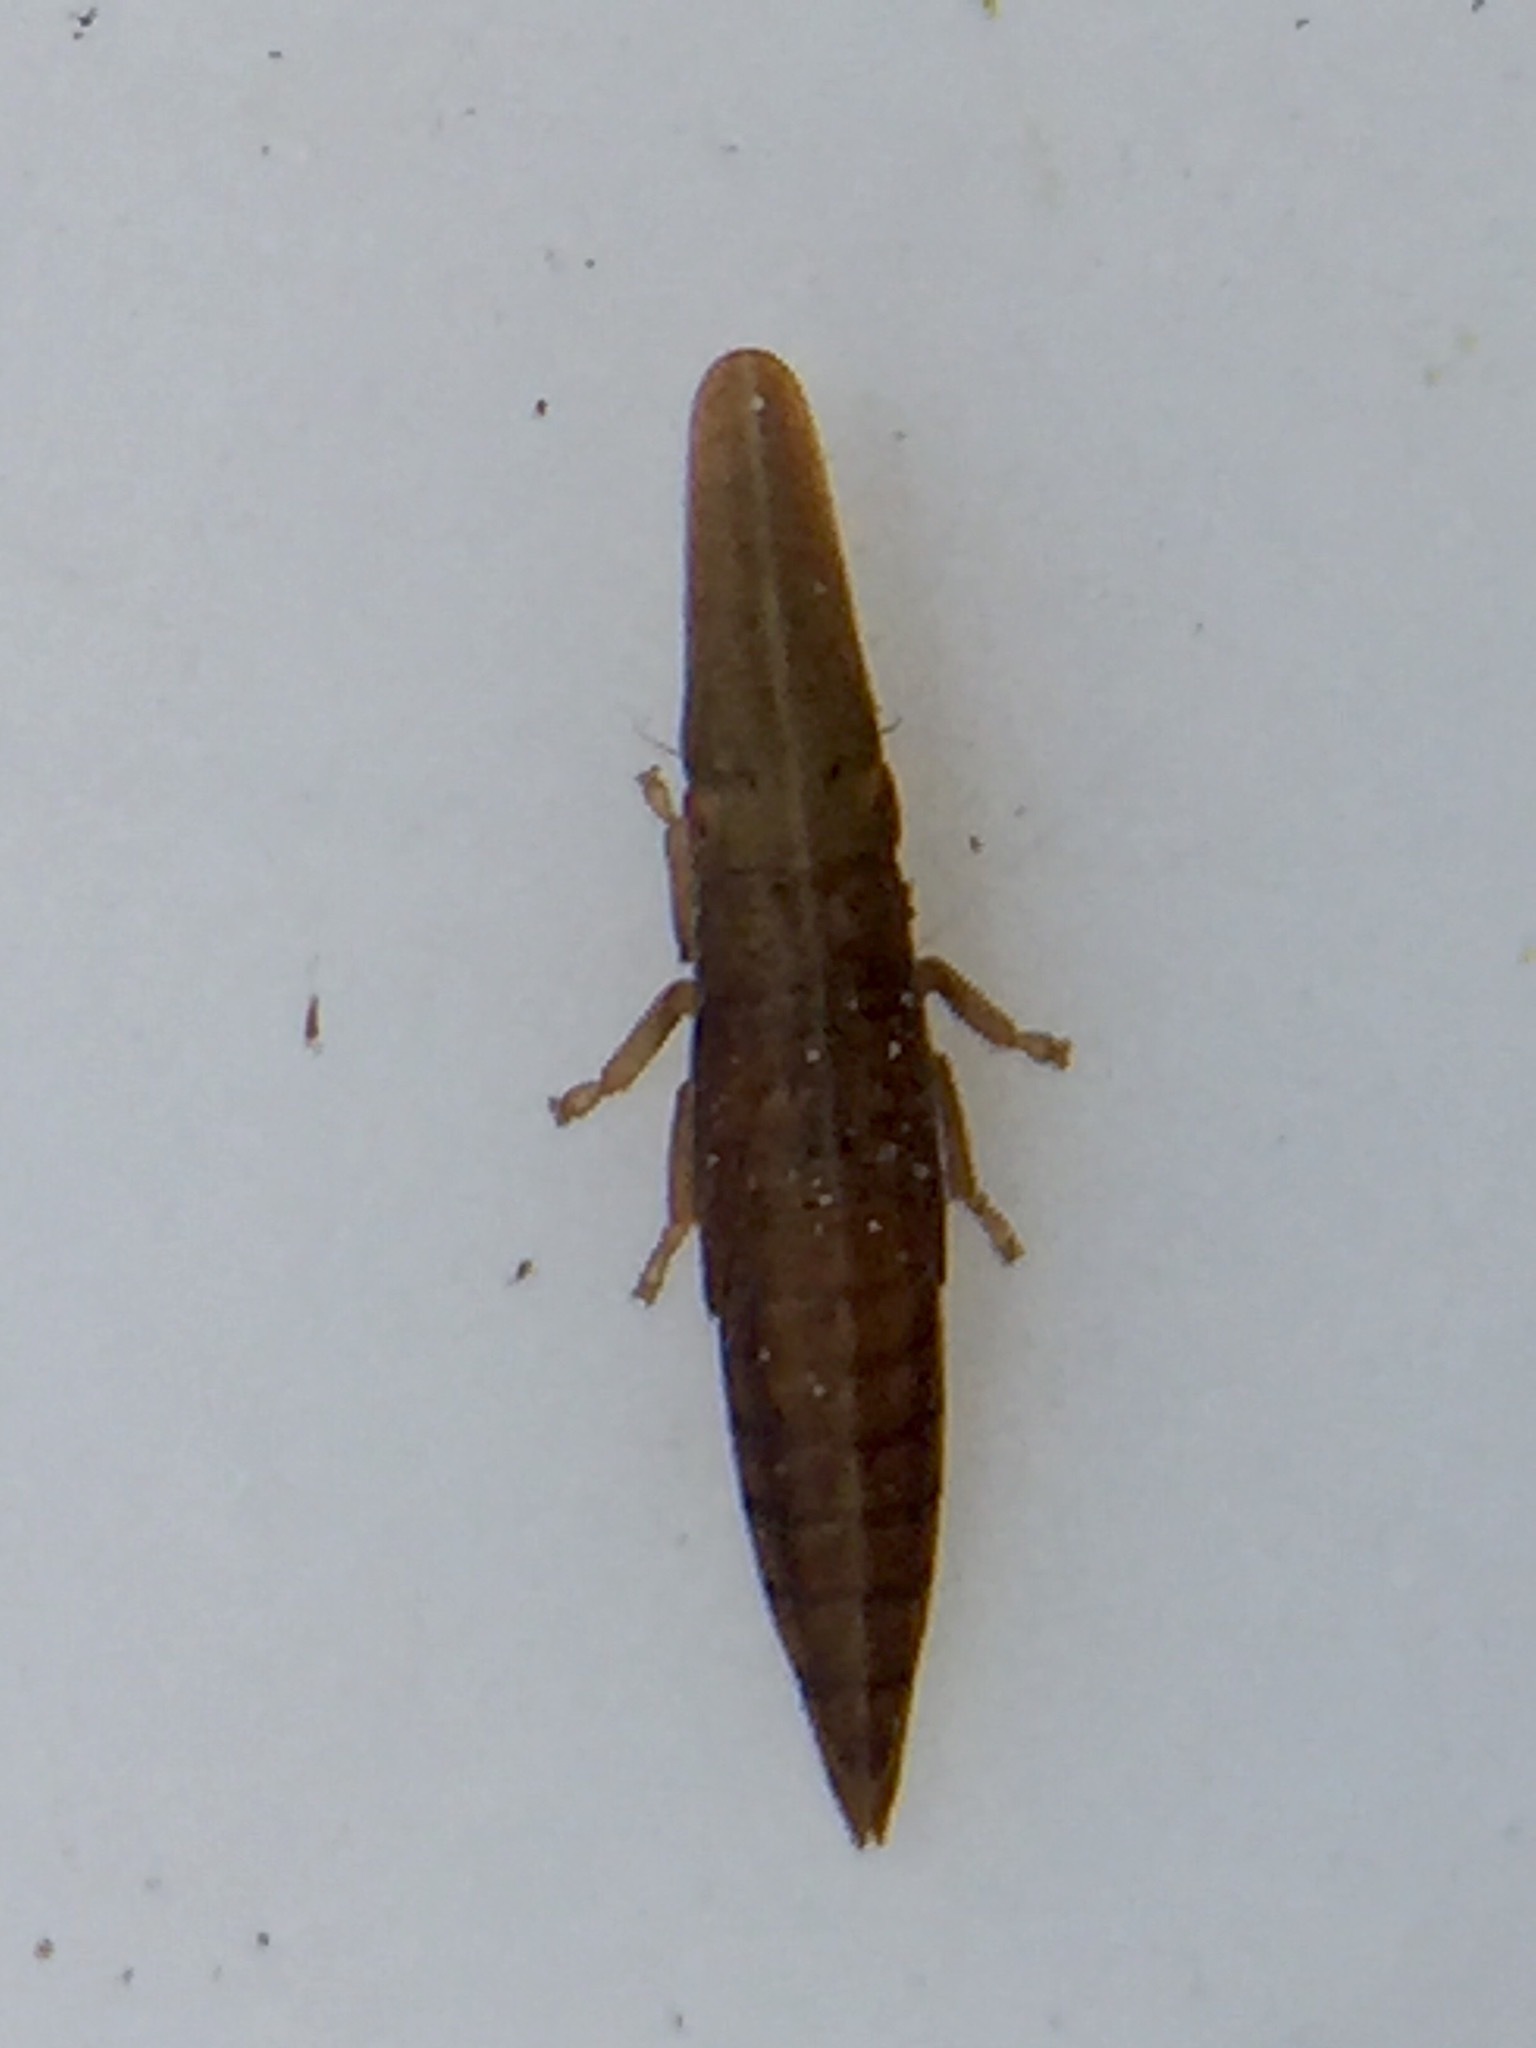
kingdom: Animalia
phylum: Arthropoda
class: Insecta
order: Hemiptera
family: Cicadellidae
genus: Paracephaleus
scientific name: Paracephaleus hudsoni
